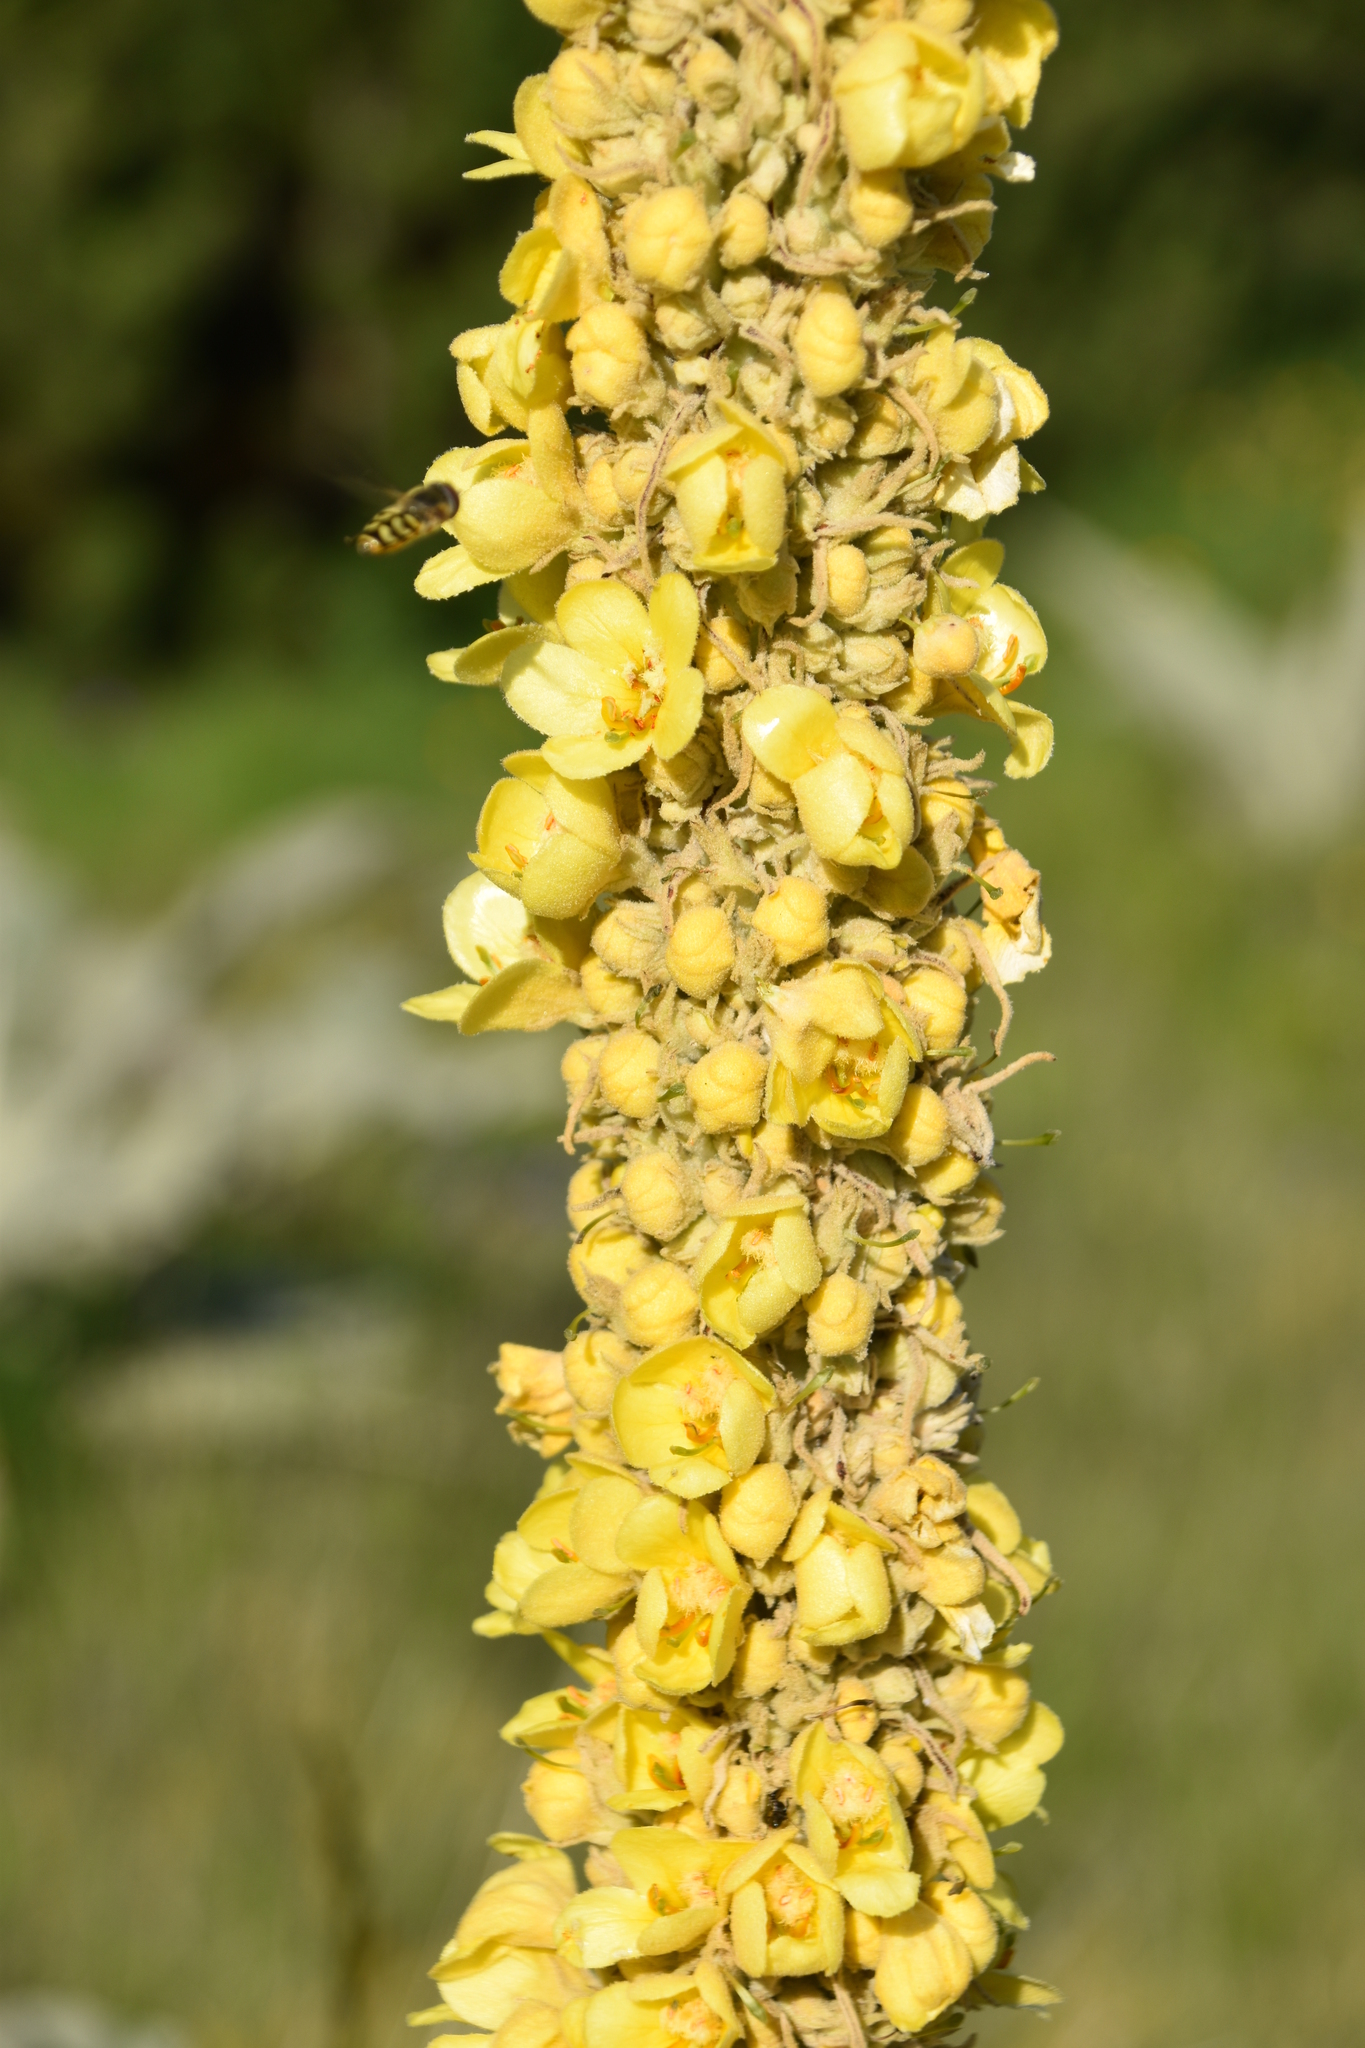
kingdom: Plantae
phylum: Tracheophyta
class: Magnoliopsida
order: Lamiales
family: Scrophulariaceae
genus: Verbascum
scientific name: Verbascum longifolium
